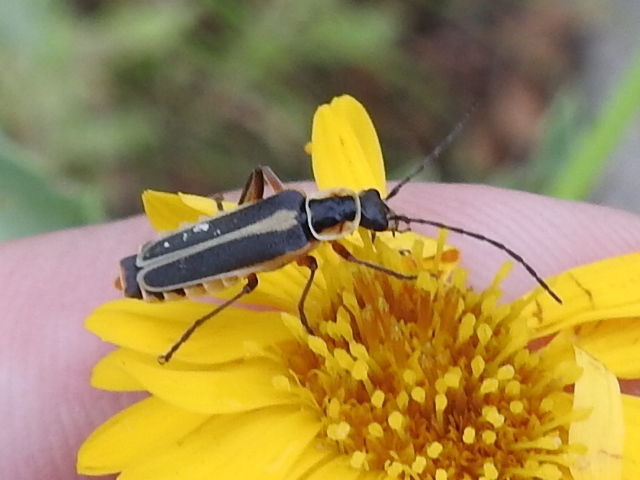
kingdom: Animalia
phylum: Arthropoda
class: Insecta
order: Coleoptera
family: Cantharidae
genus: Chauliognathus
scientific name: Chauliognathus lewisi
